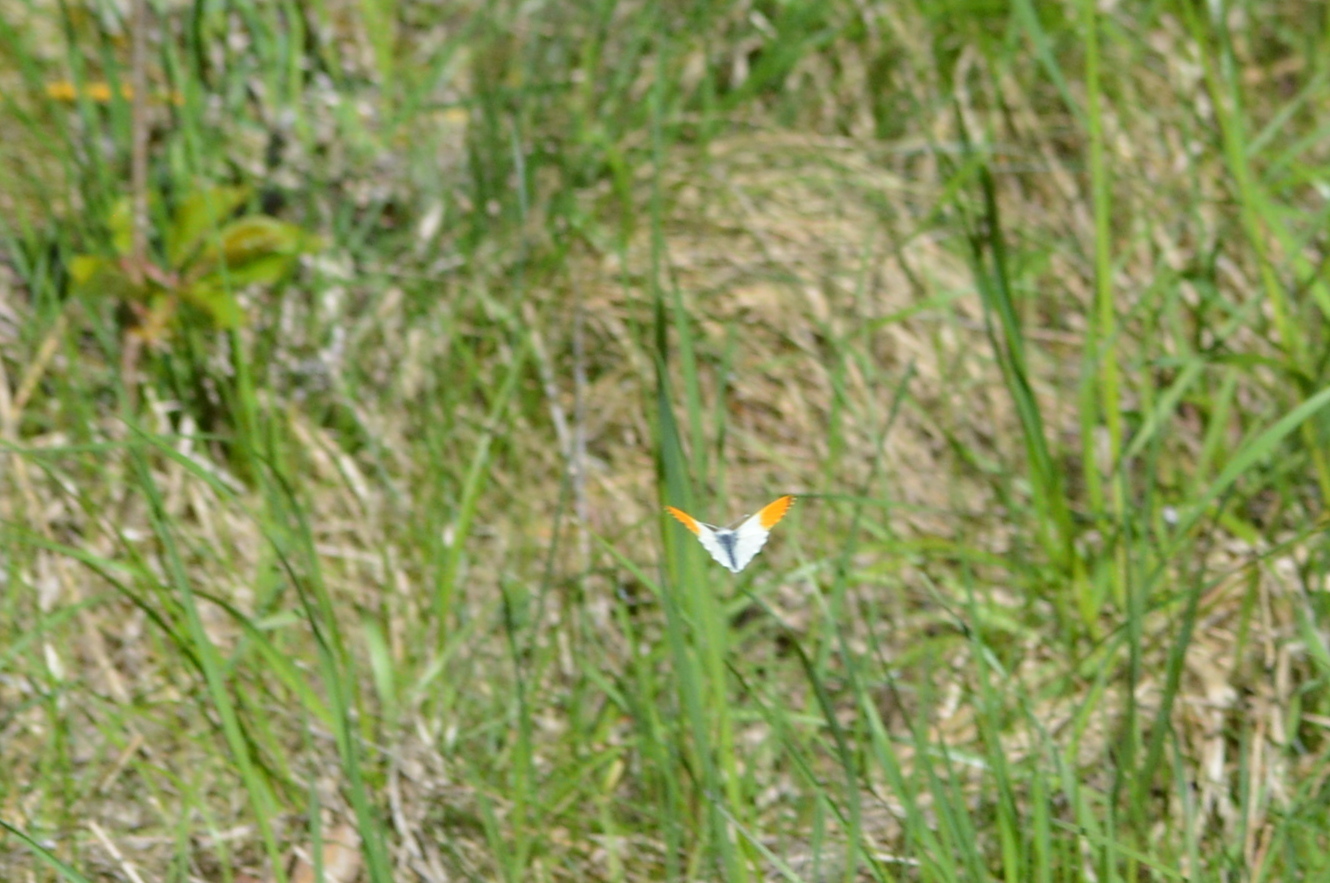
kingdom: Animalia
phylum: Arthropoda
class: Insecta
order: Lepidoptera
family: Pieridae
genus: Anthocharis
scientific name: Anthocharis cardamines
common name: Orange-tip
